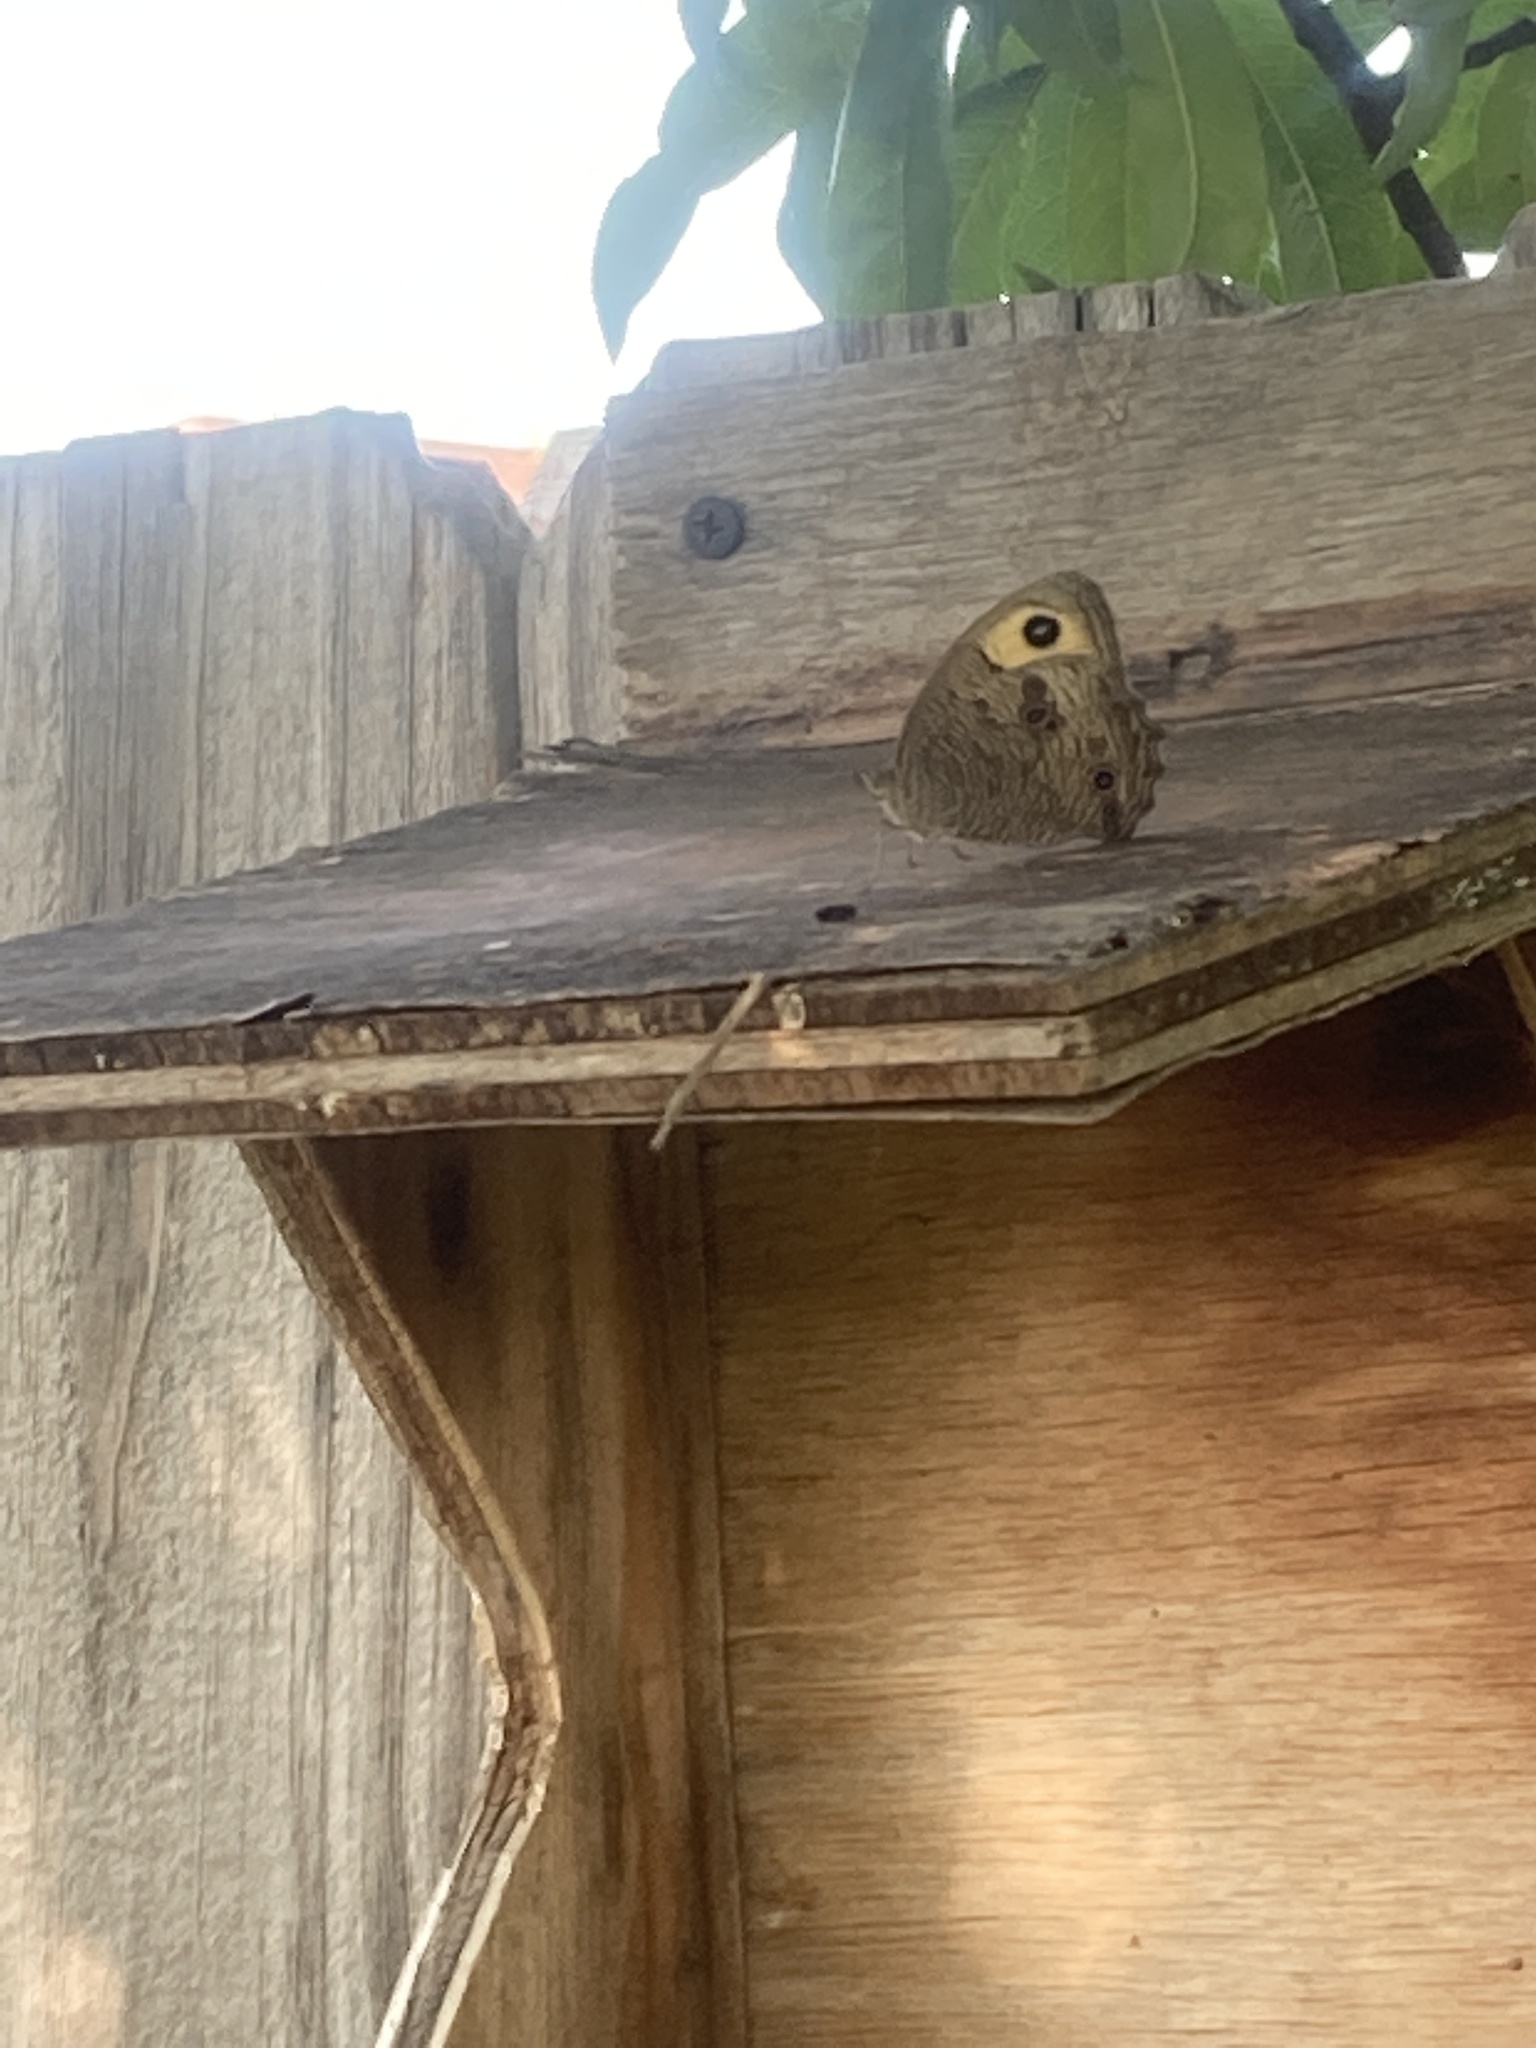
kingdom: Animalia
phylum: Arthropoda
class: Insecta
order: Lepidoptera
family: Nymphalidae
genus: Cercyonis
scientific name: Cercyonis pegala
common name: Common wood-nymph
